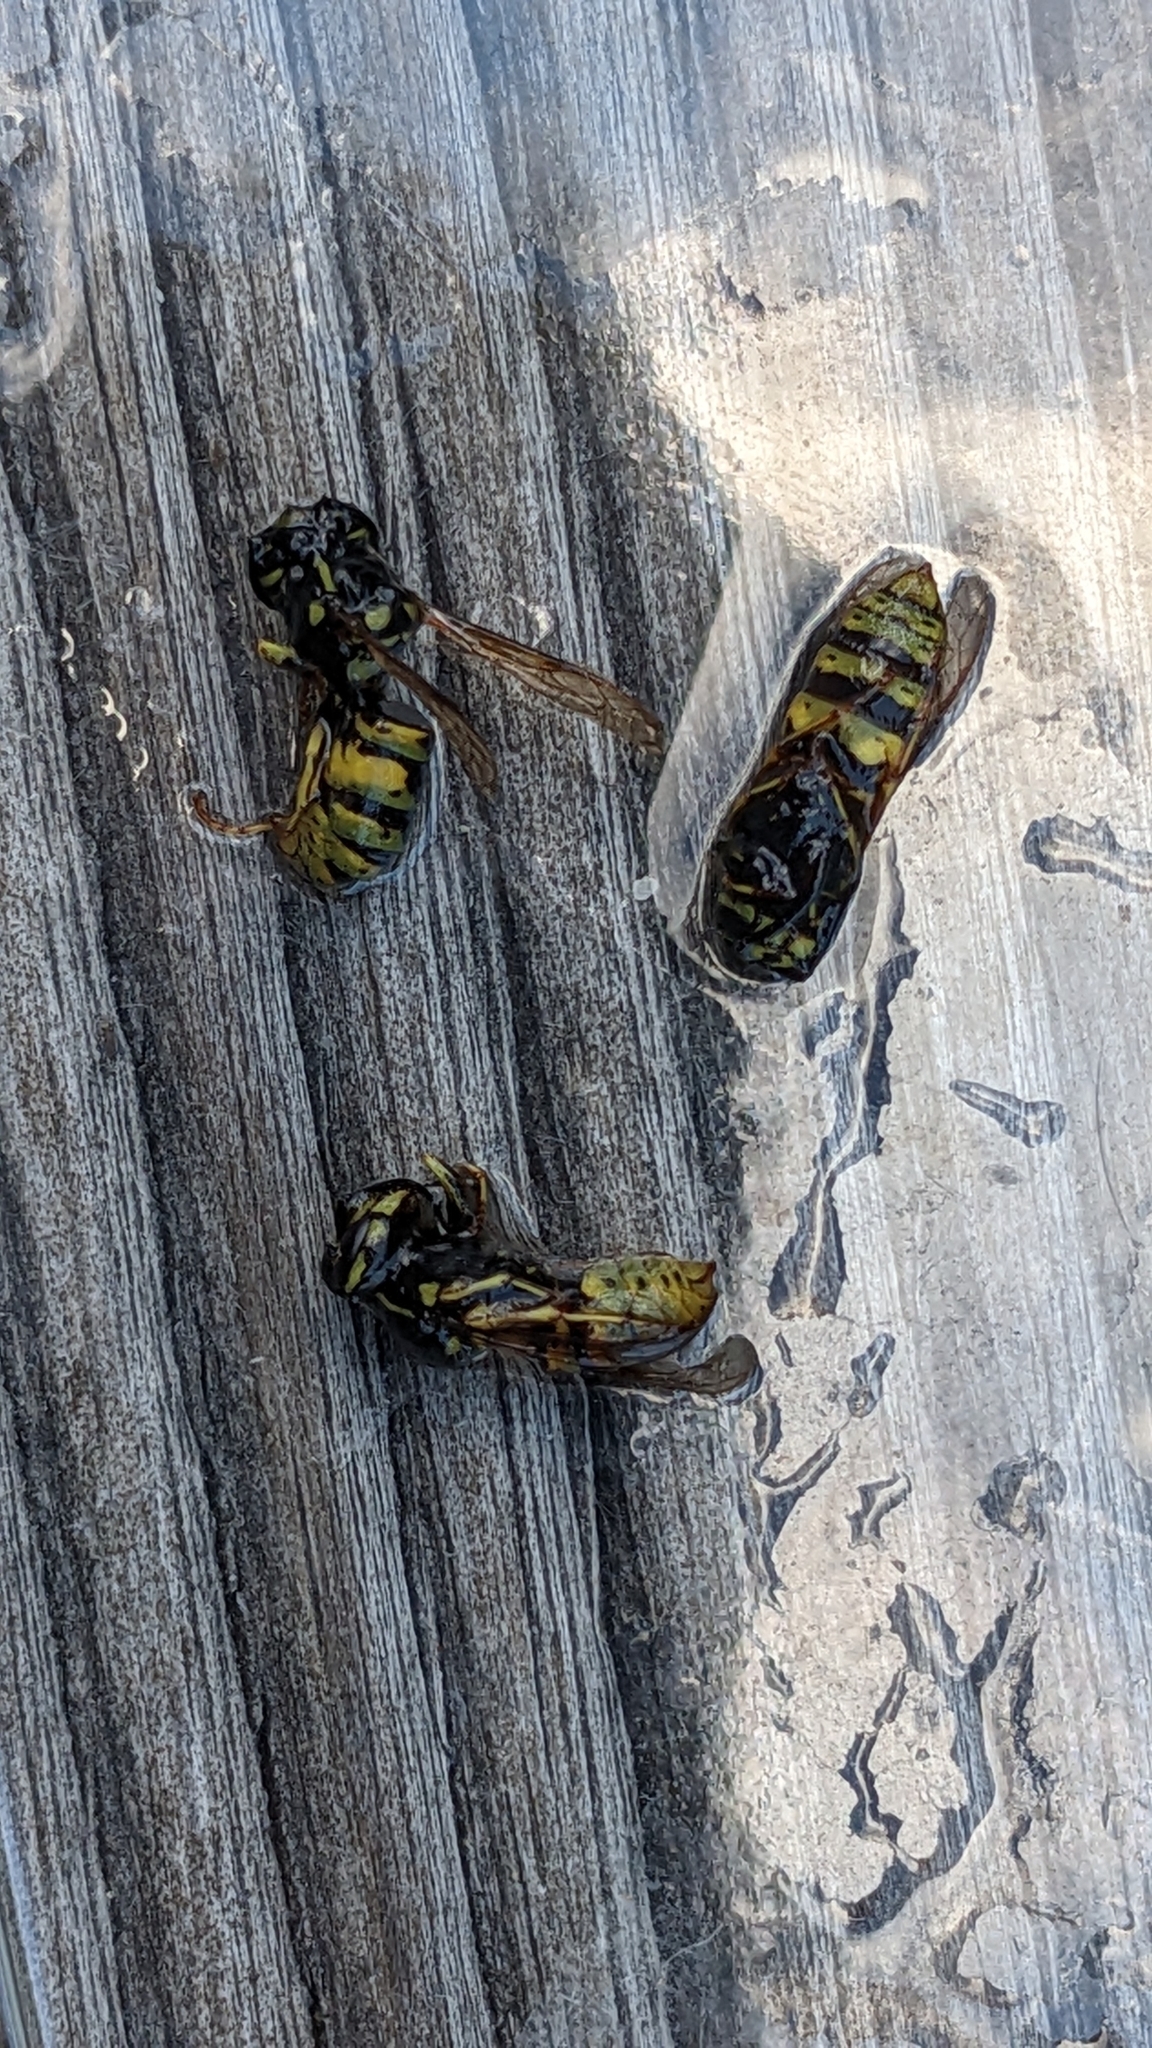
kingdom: Animalia
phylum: Arthropoda
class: Insecta
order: Hymenoptera
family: Vespidae
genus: Vespula
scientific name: Vespula vulgaris
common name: Common wasp
